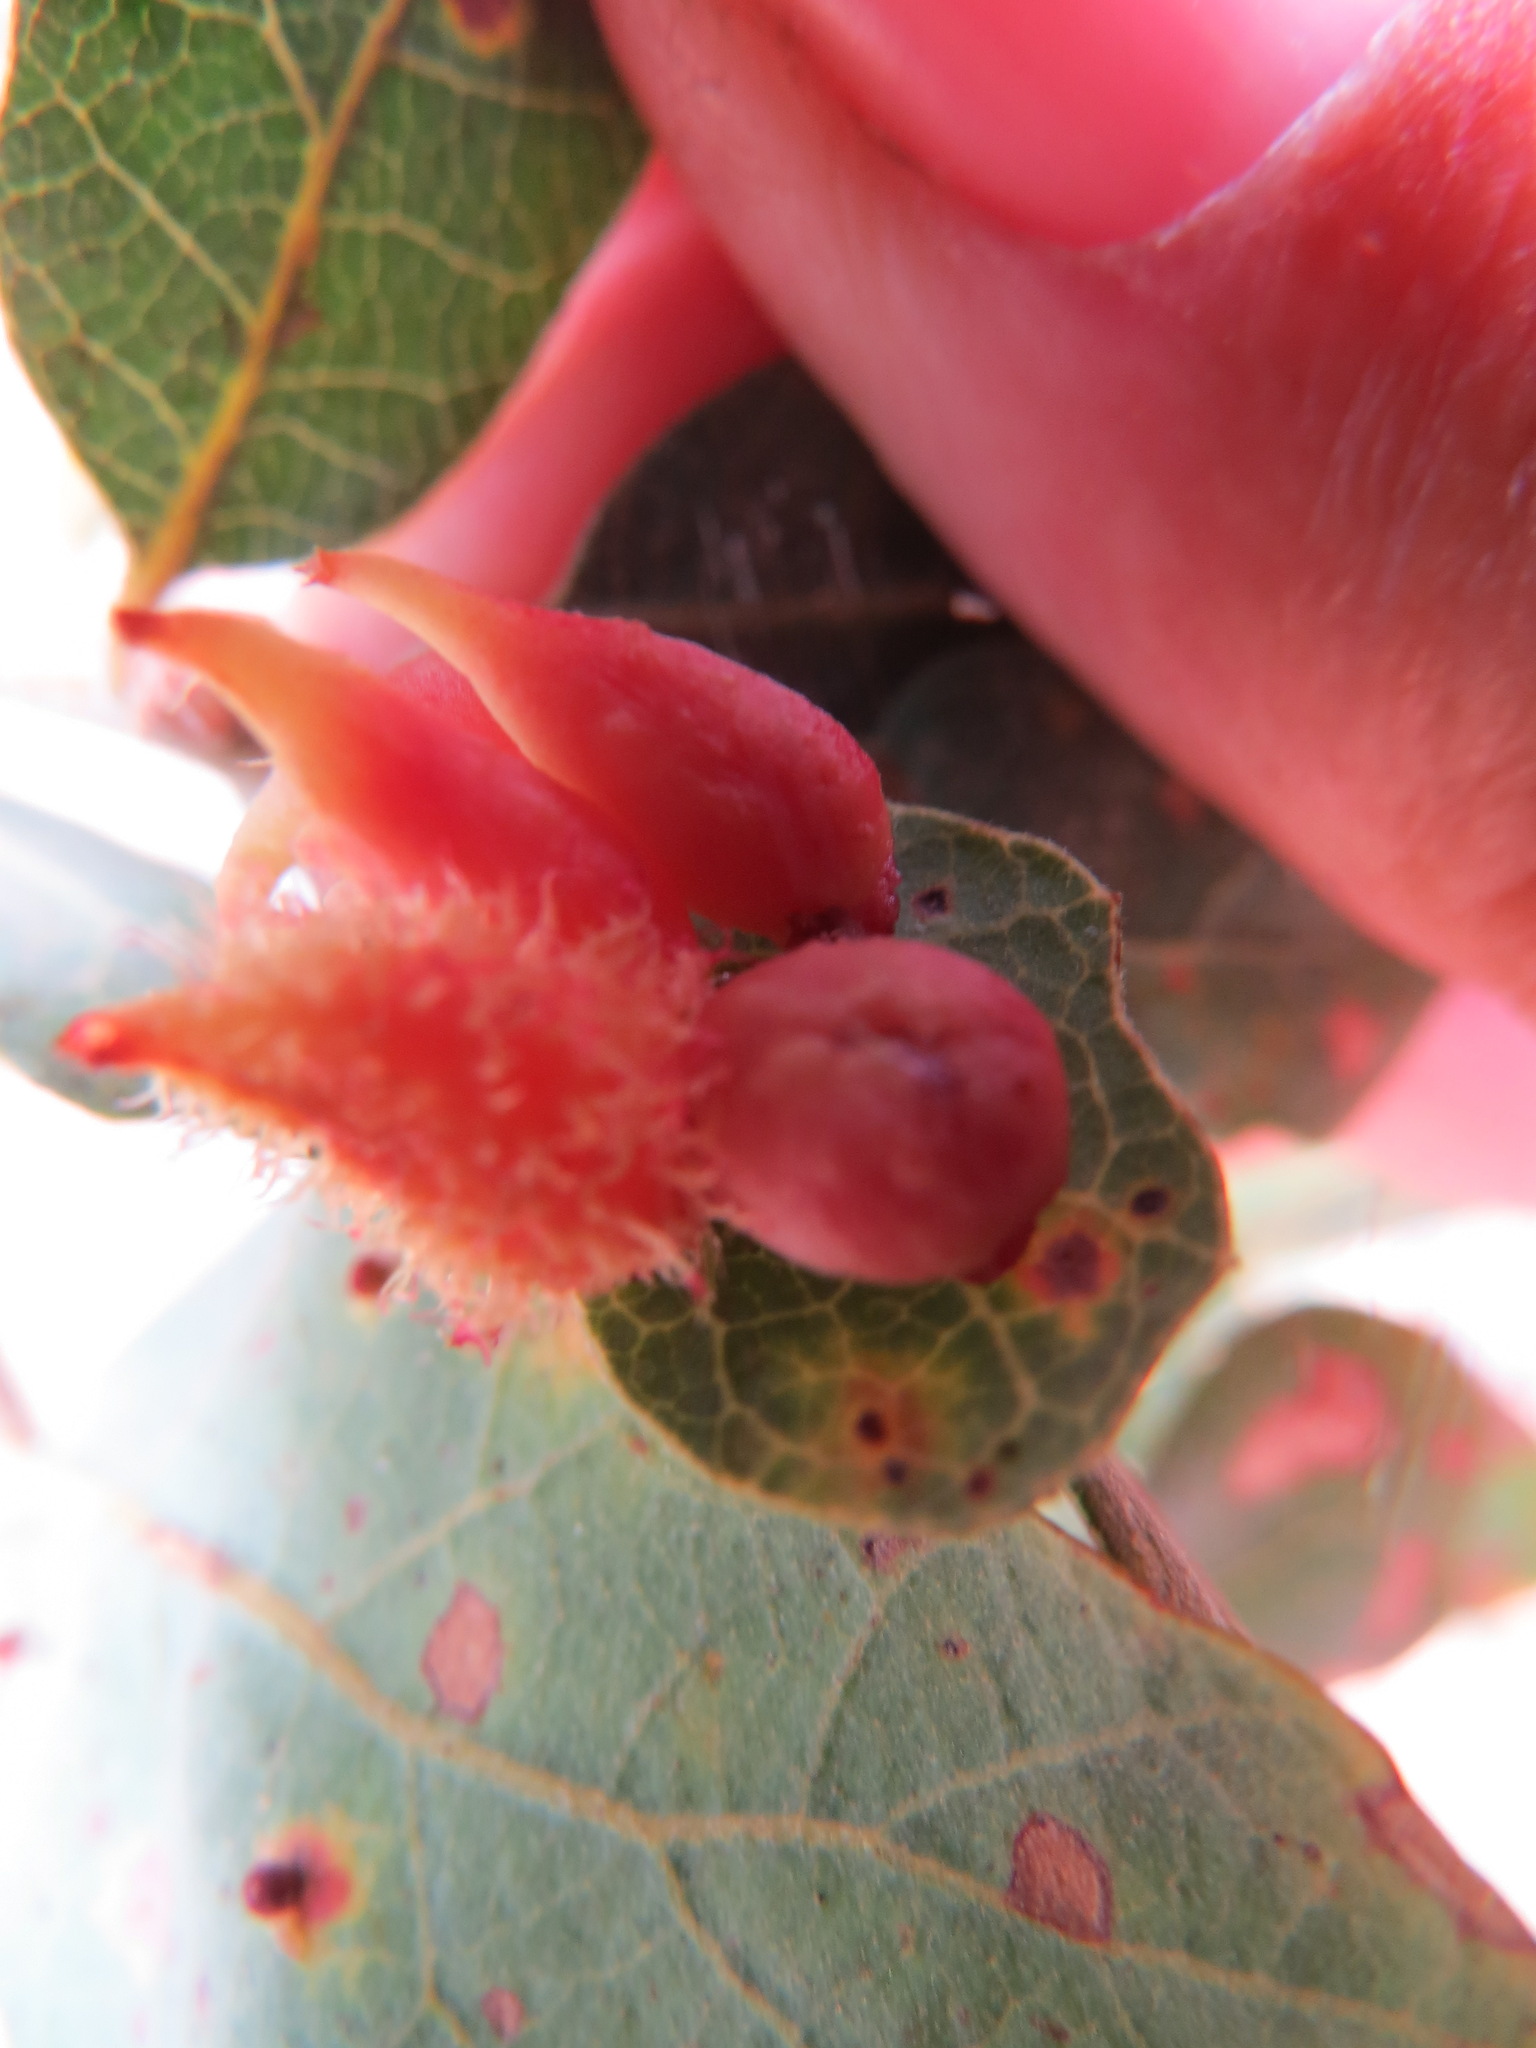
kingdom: Animalia
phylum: Arthropoda
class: Insecta
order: Hymenoptera
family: Cynipidae
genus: Andricus
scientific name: Andricus
